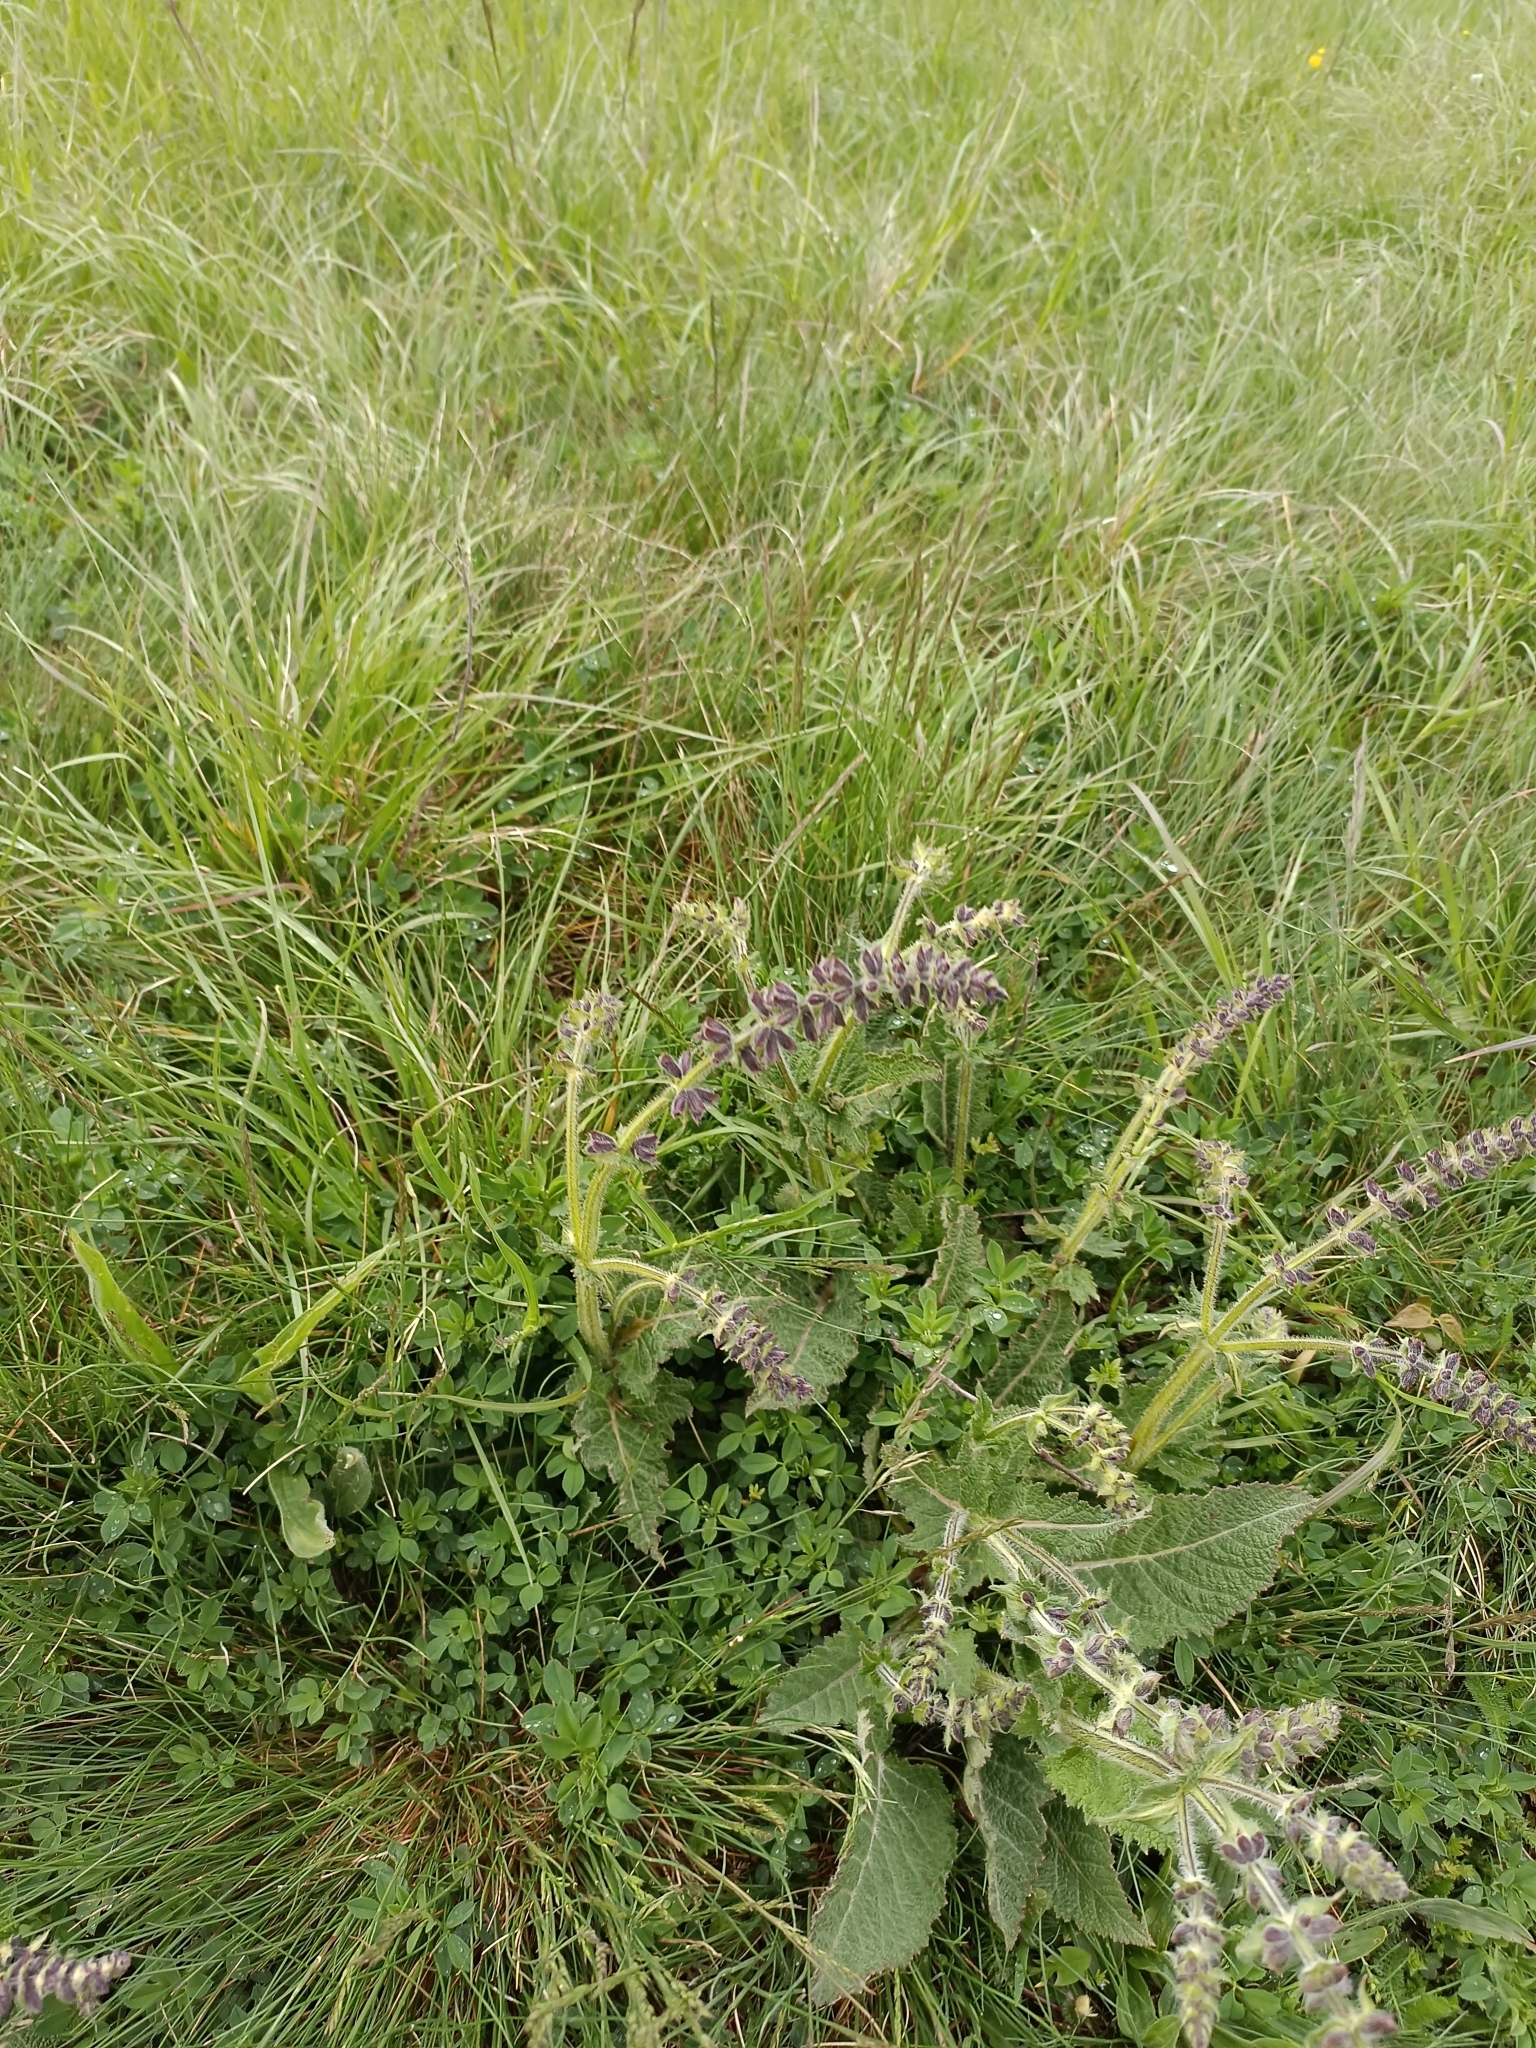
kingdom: Plantae
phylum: Tracheophyta
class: Magnoliopsida
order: Lamiales
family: Lamiaceae
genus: Salvia
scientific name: Salvia pratensis
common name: Meadow sage
